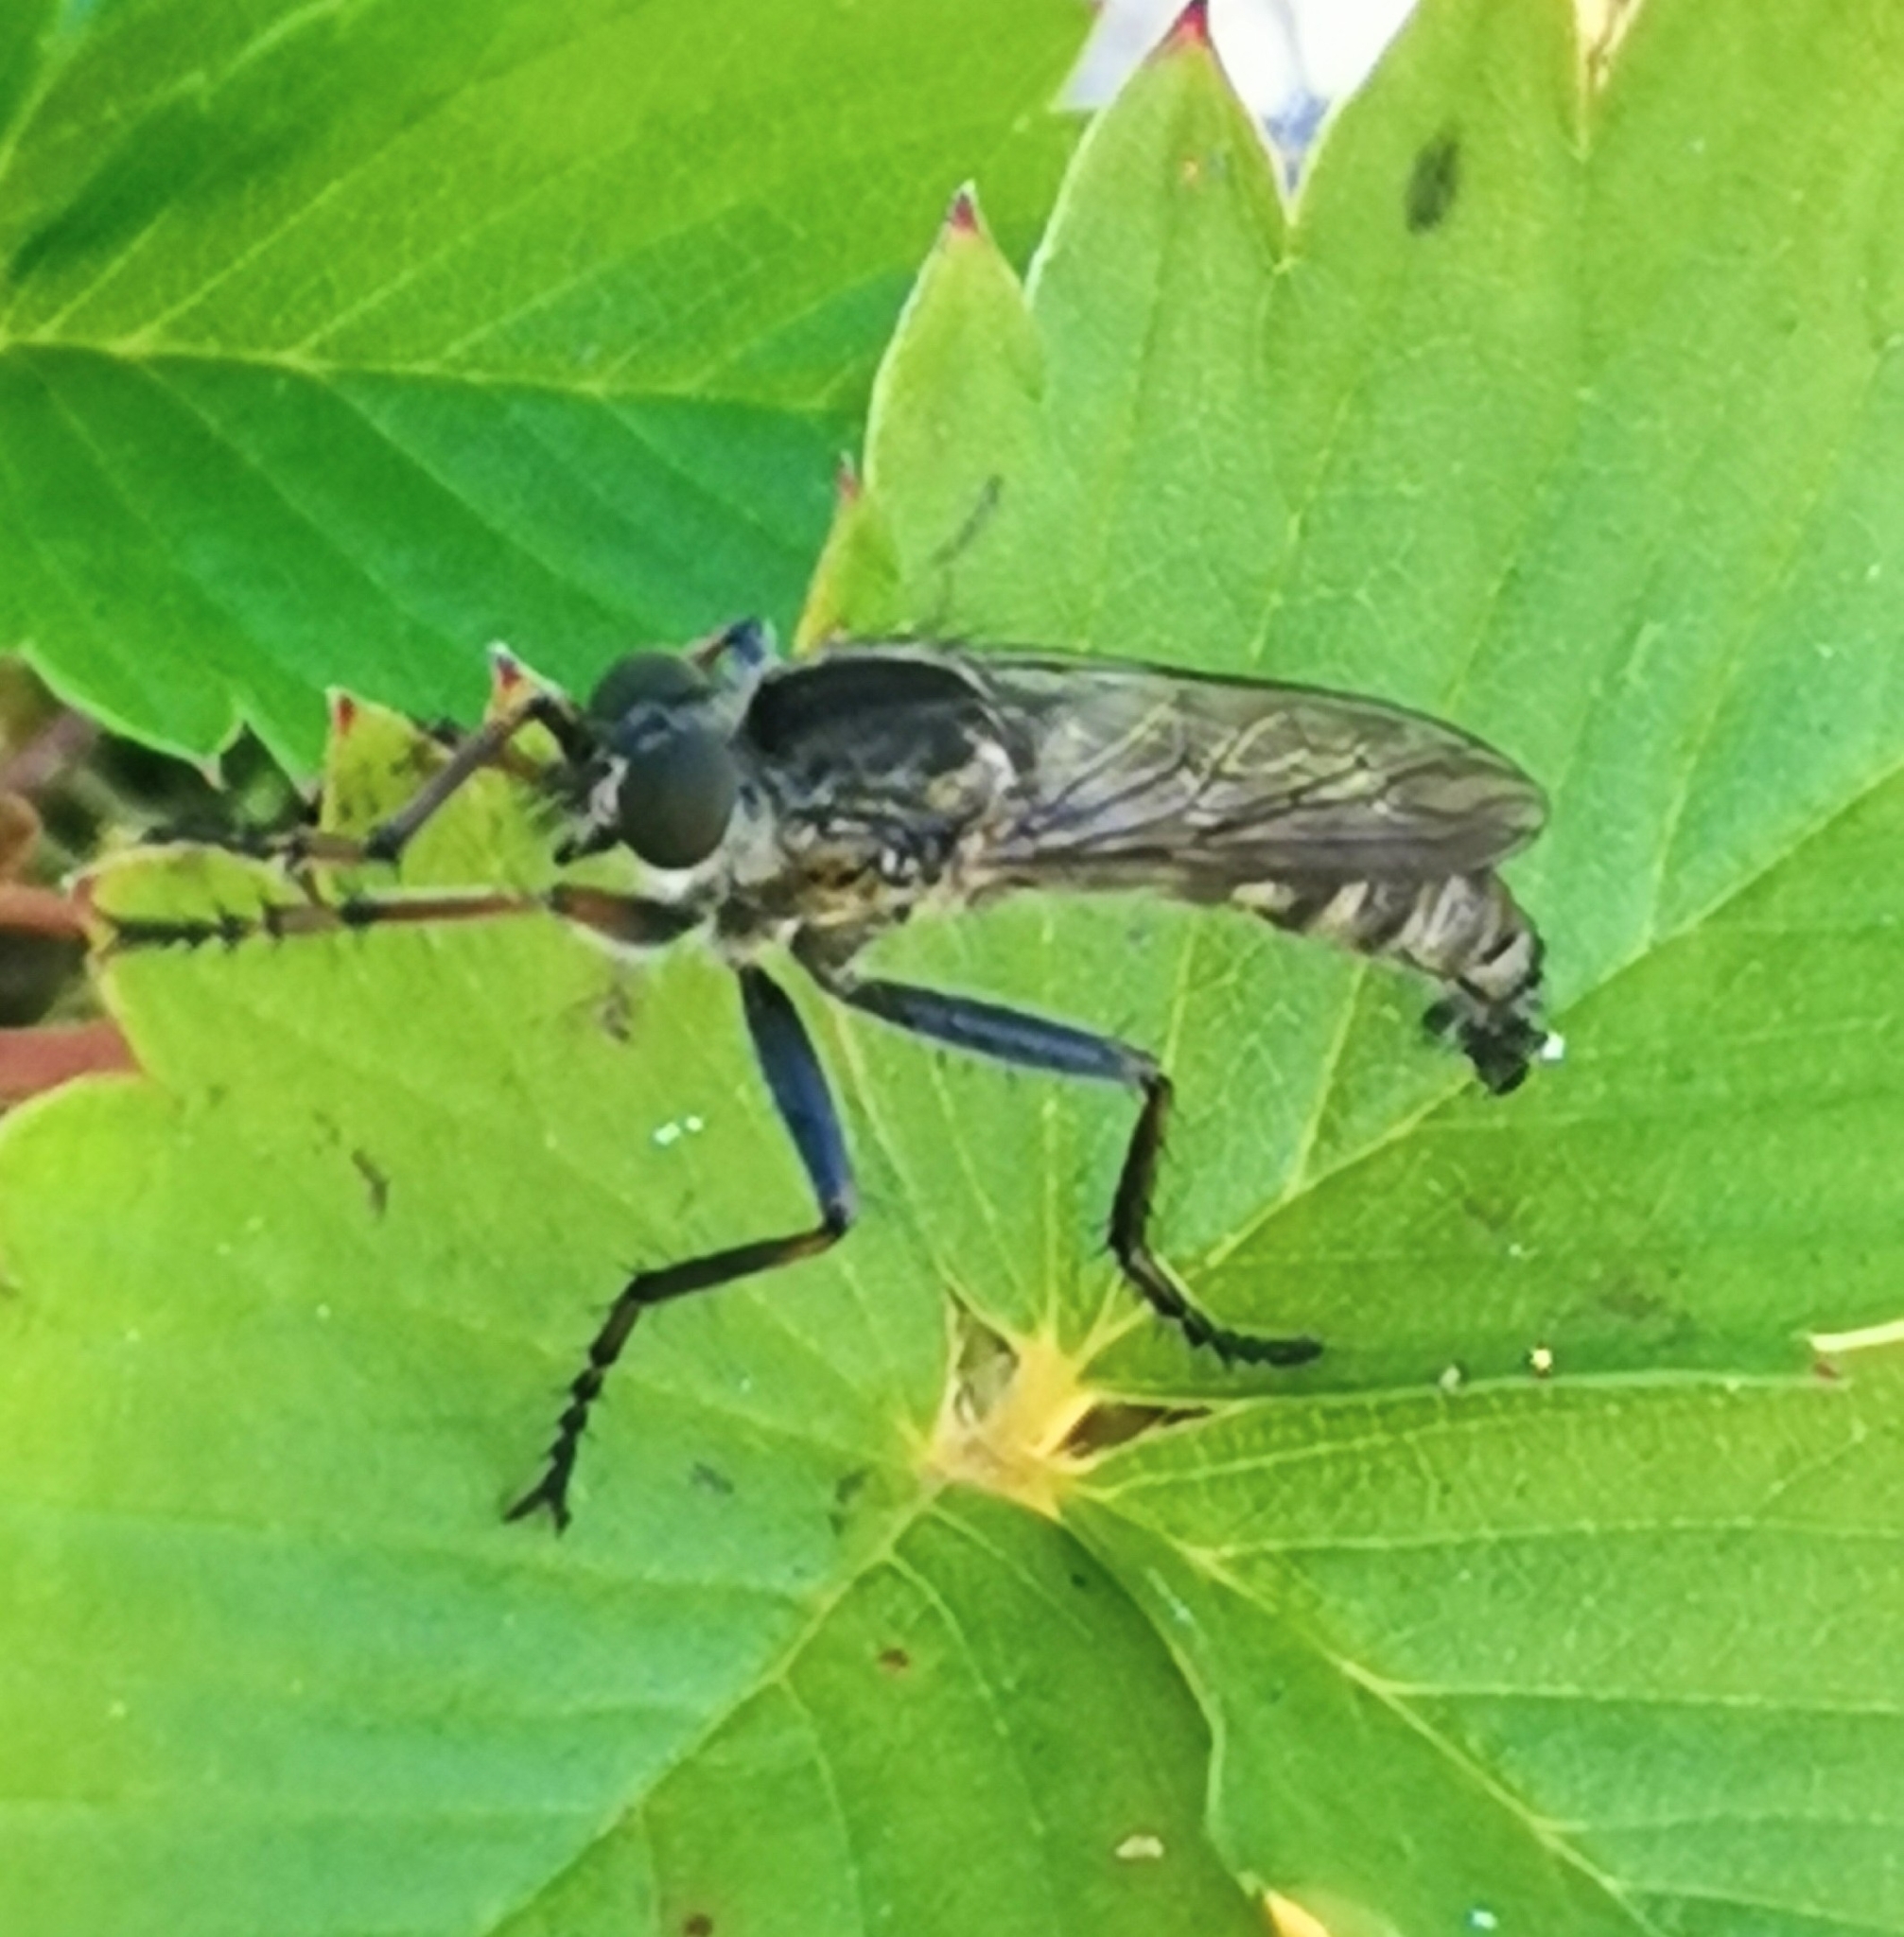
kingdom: Animalia
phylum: Arthropoda
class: Insecta
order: Diptera
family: Asilidae
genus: Machimus
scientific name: Machimus atricapillus
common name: Kite-tailed robberfly
